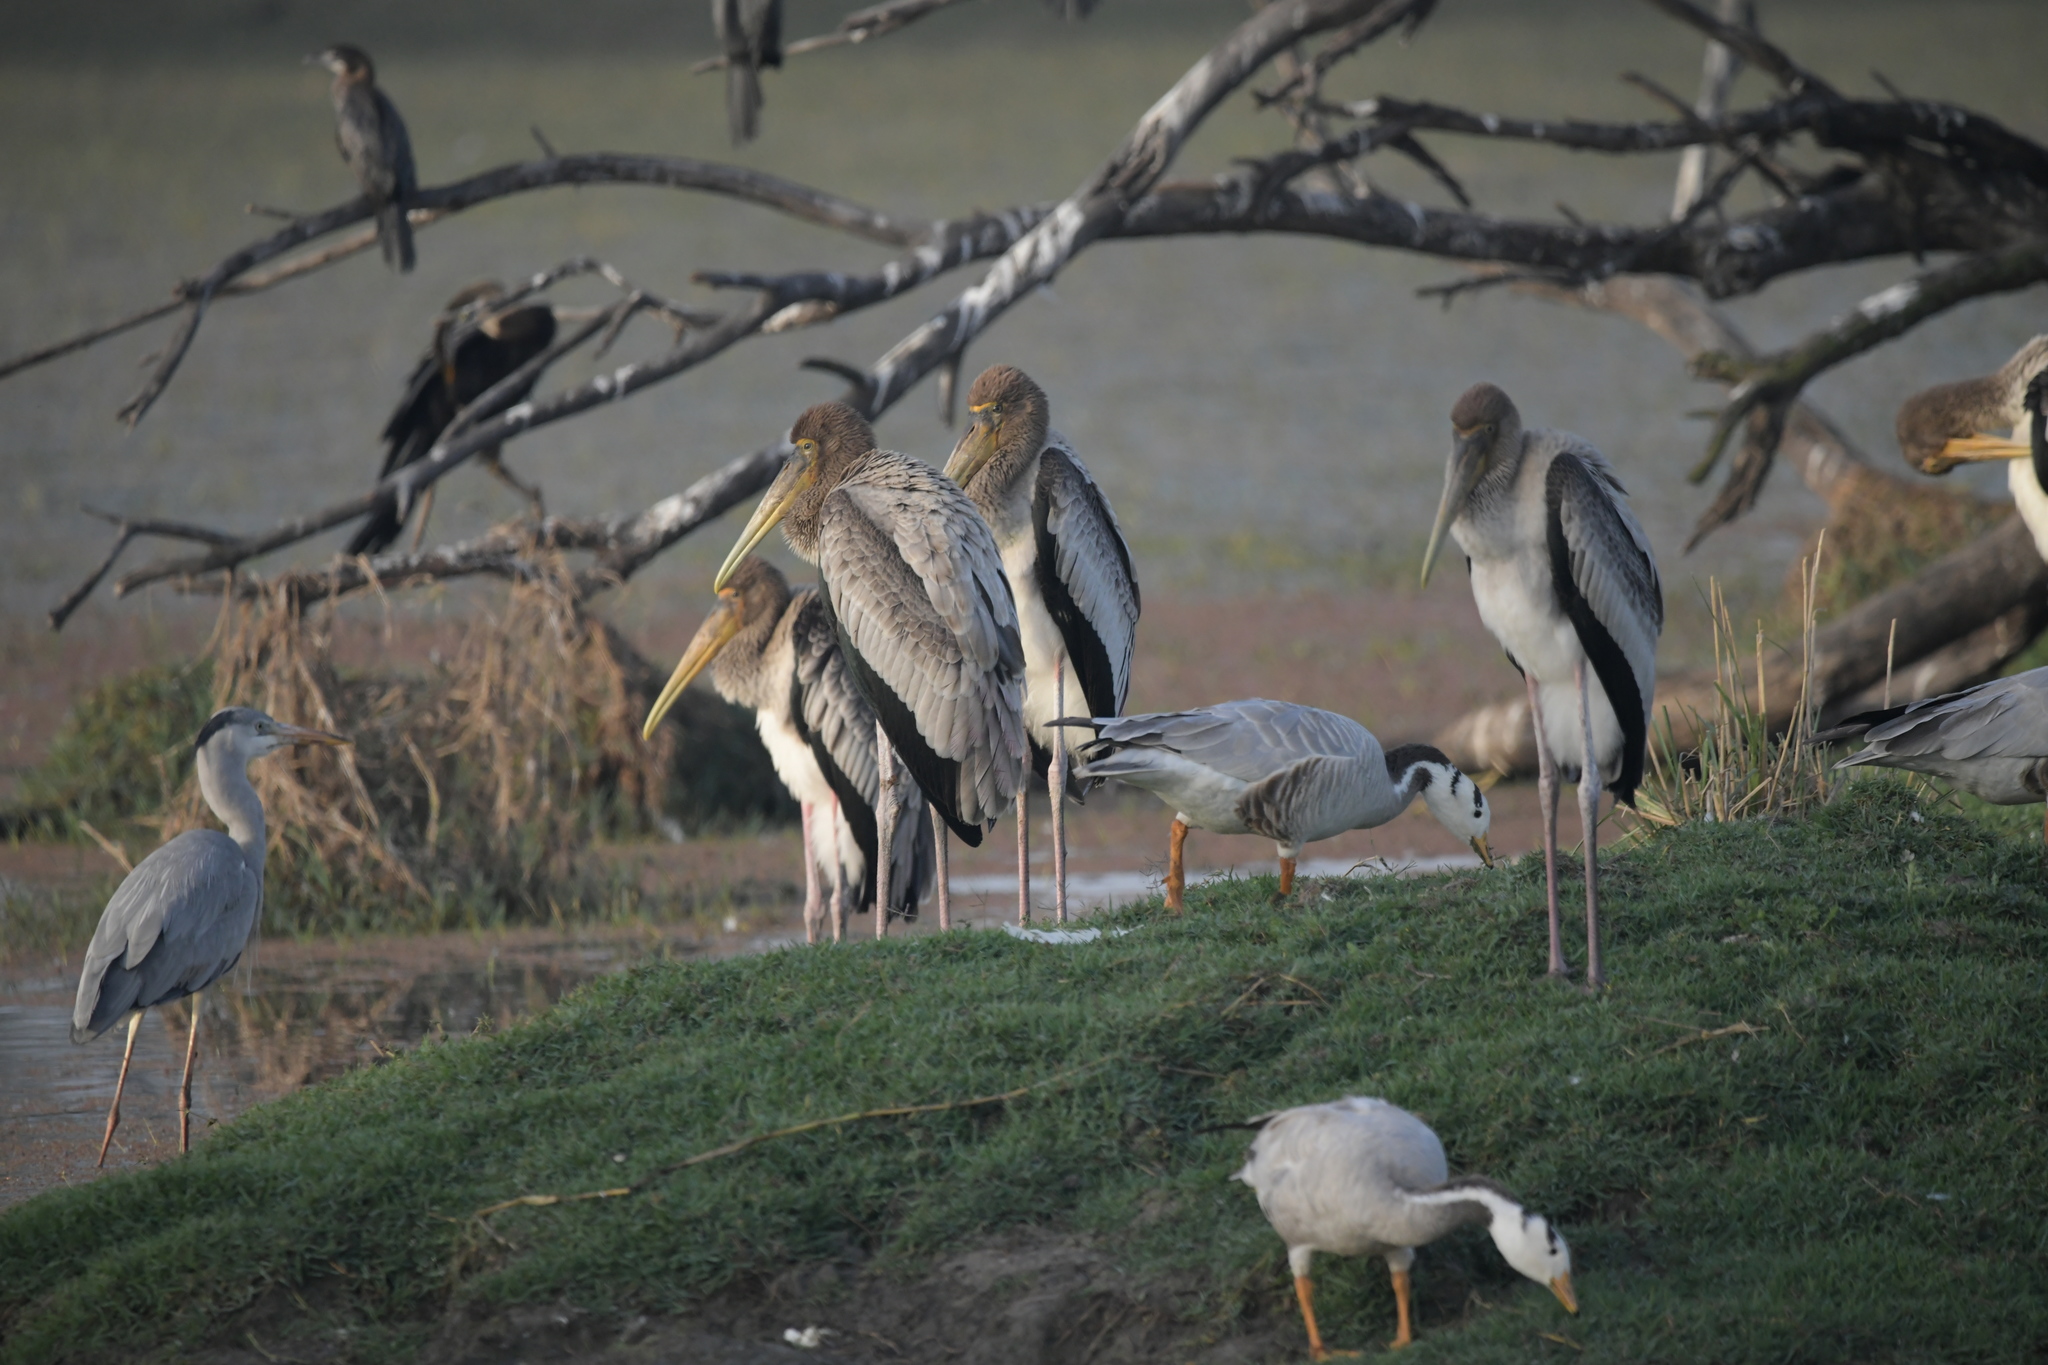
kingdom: Animalia
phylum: Chordata
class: Aves
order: Ciconiiformes
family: Ciconiidae
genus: Mycteria
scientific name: Mycteria leucocephala
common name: Painted stork
